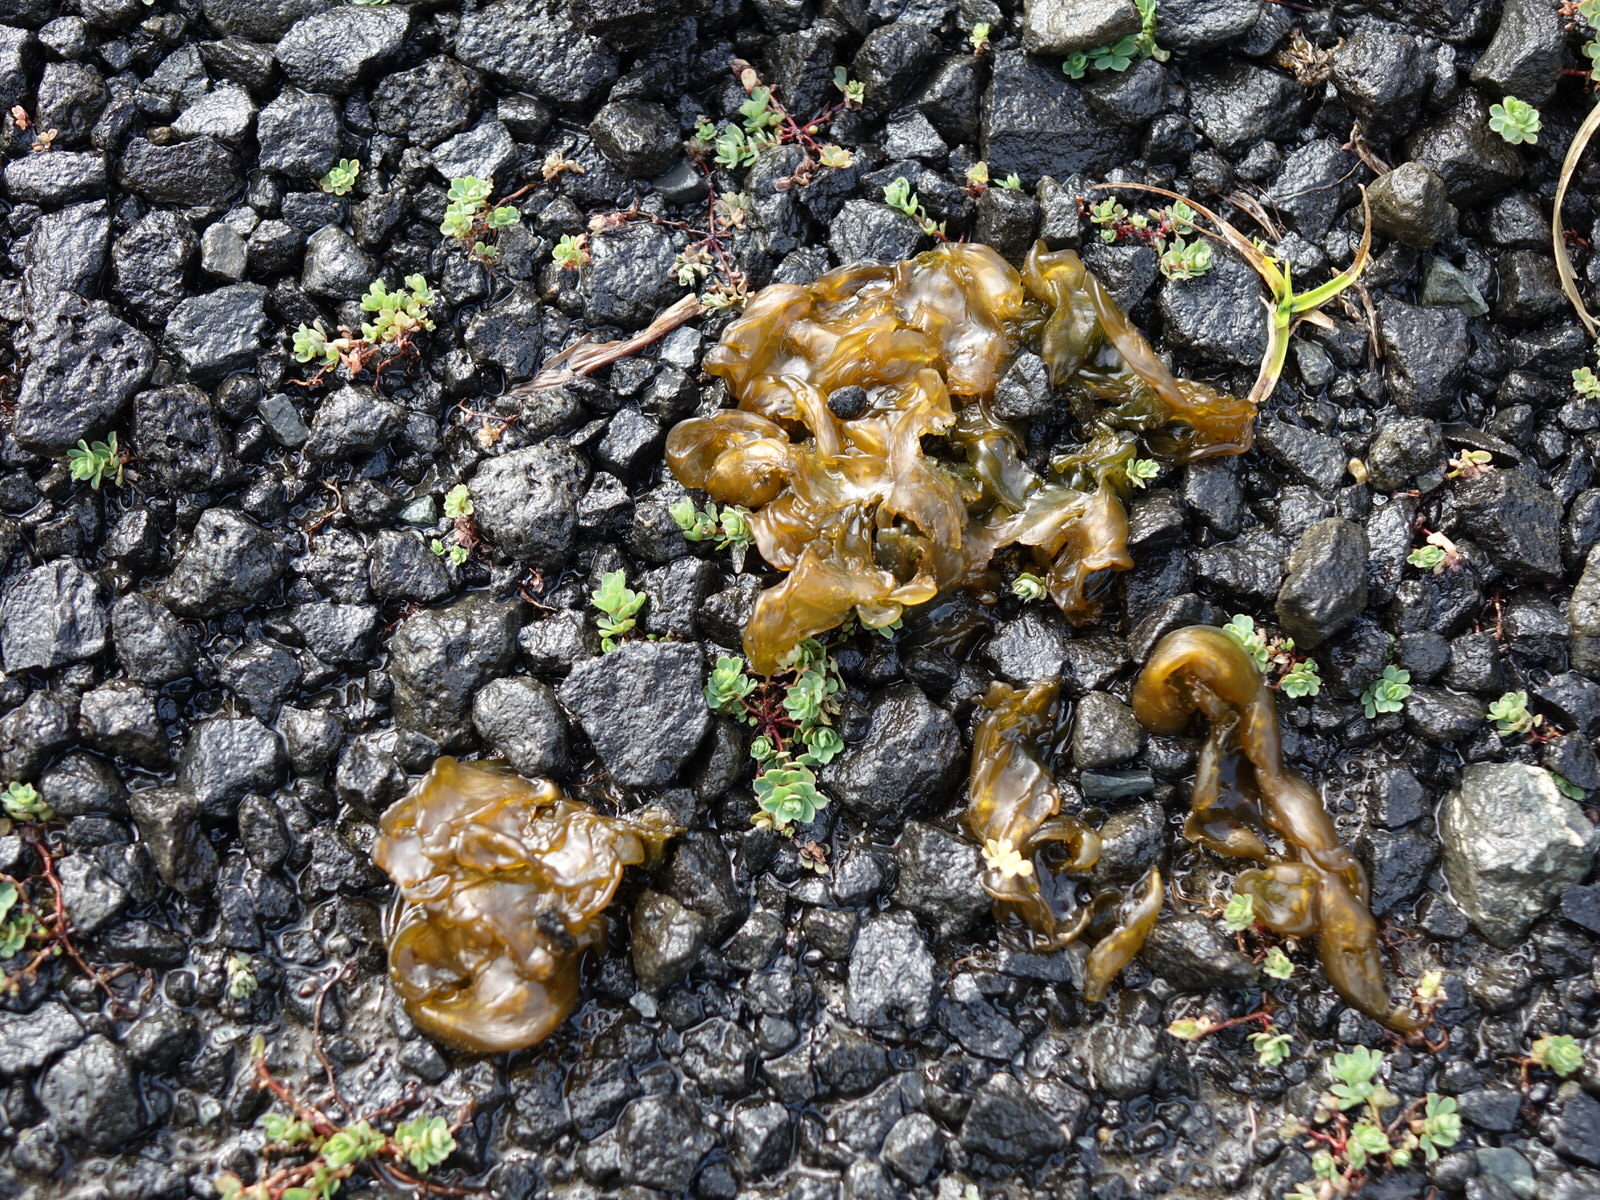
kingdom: Bacteria
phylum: Cyanobacteria
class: Cyanobacteriia
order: Cyanobacteriales
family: Nostocaceae
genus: Nostoc
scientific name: Nostoc commune
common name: Star jelly
